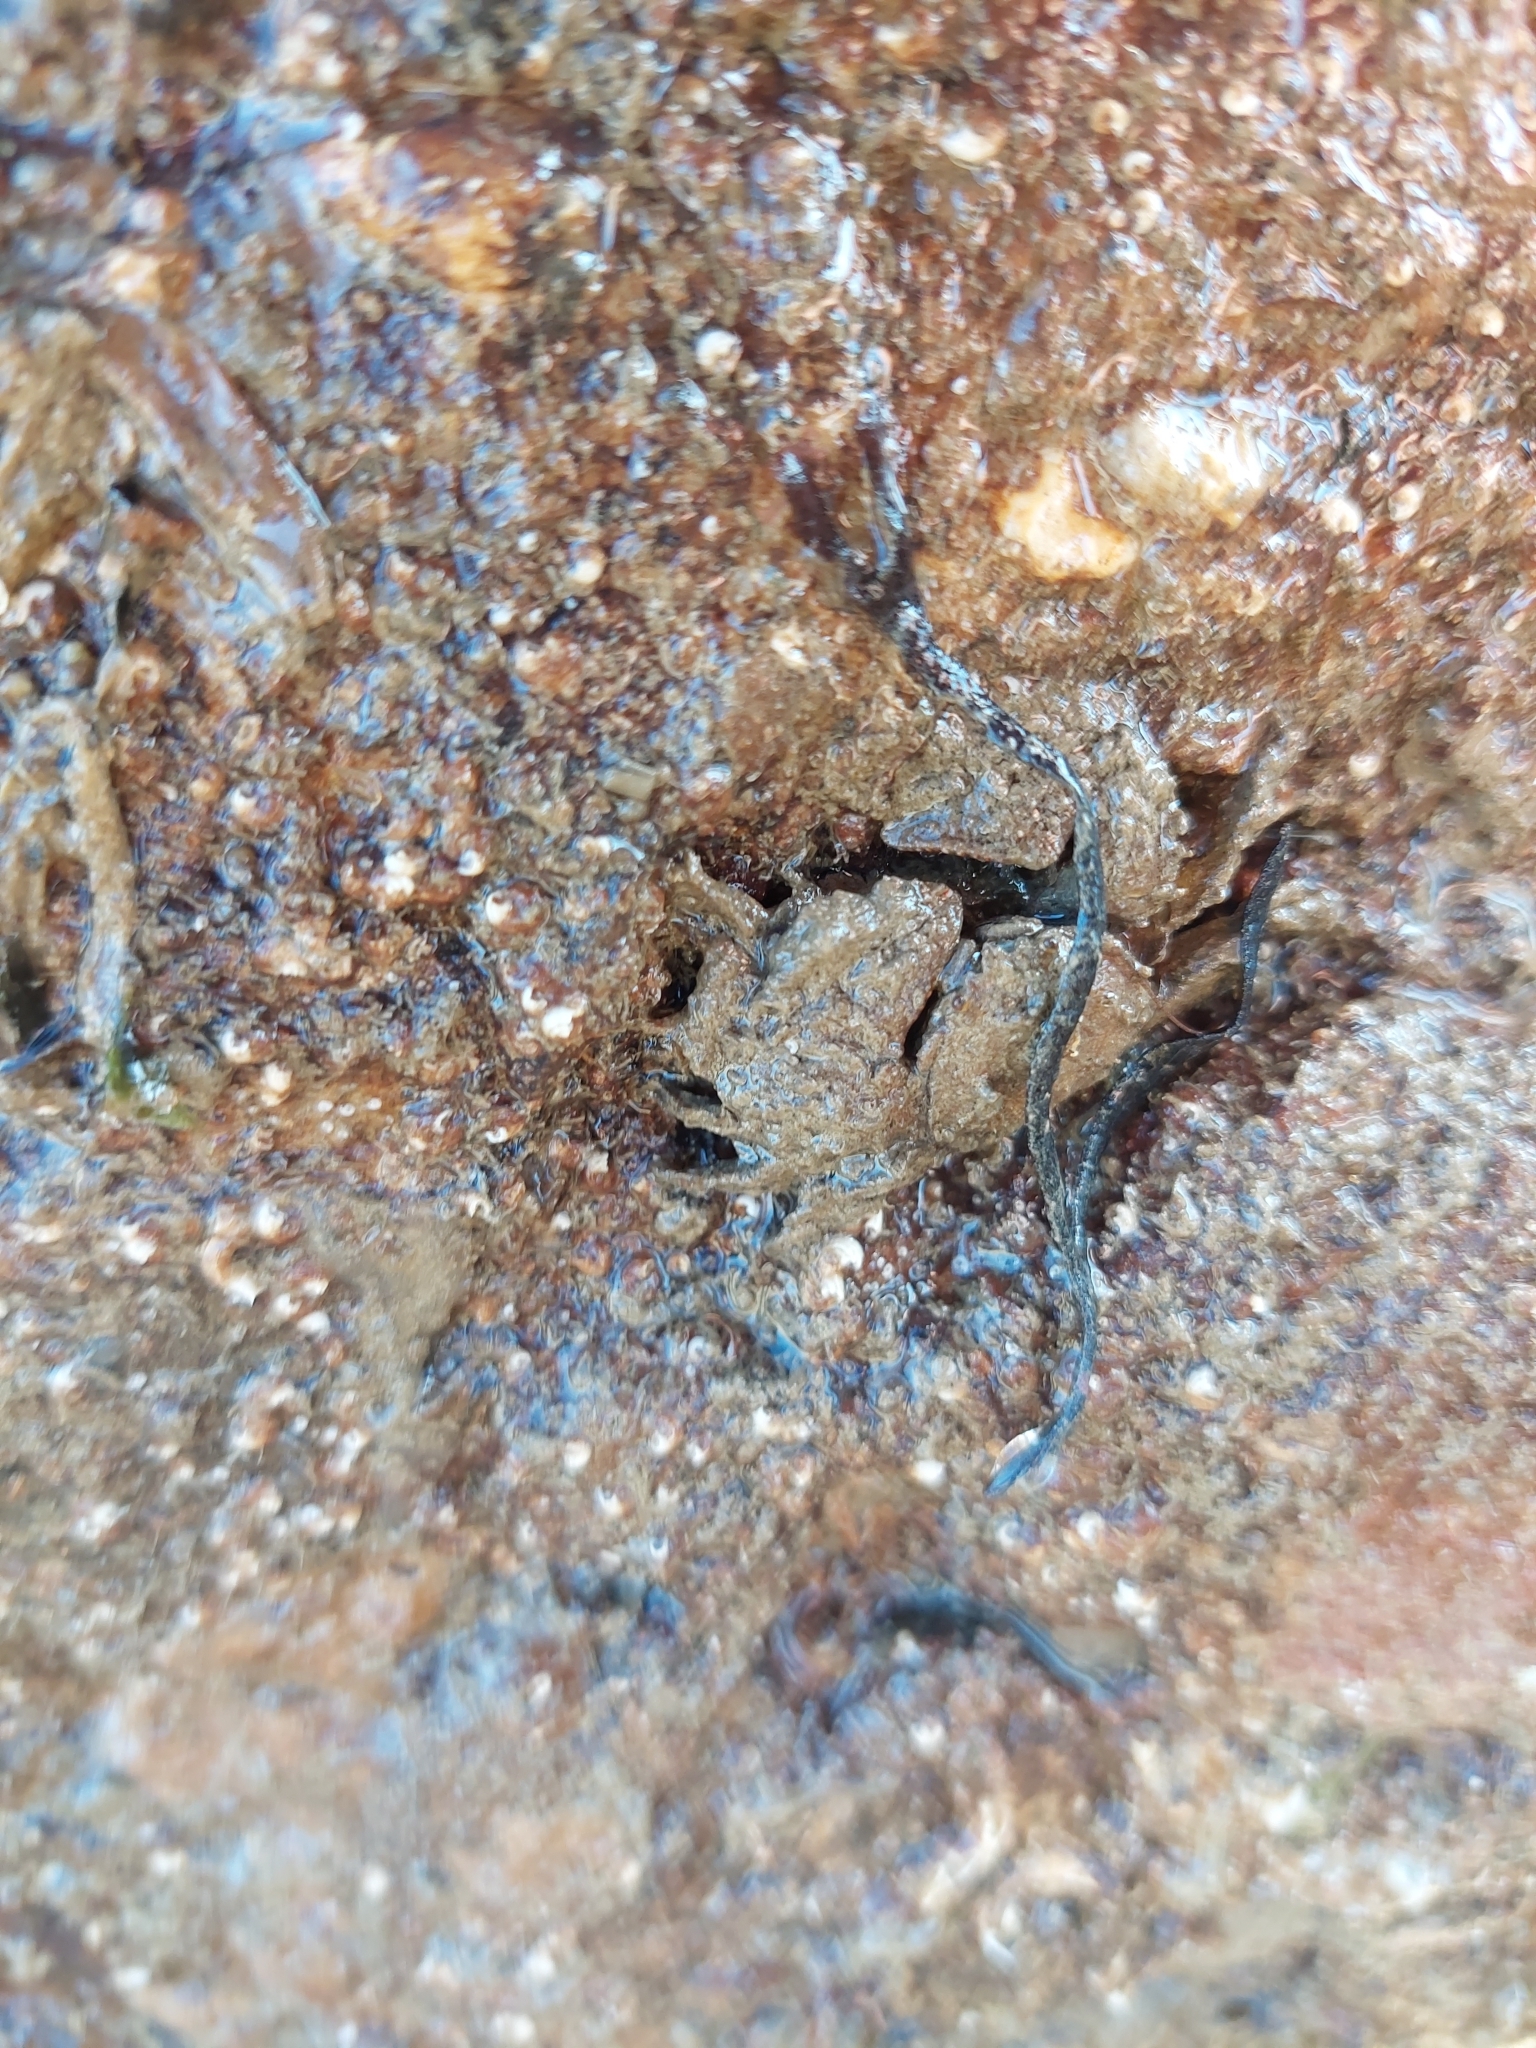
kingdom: Animalia
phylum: Arthropoda
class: Malacostraca
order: Decapoda
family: Porcellanidae
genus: Porcellana
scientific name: Porcellana platycheles
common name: Porcelain crab
